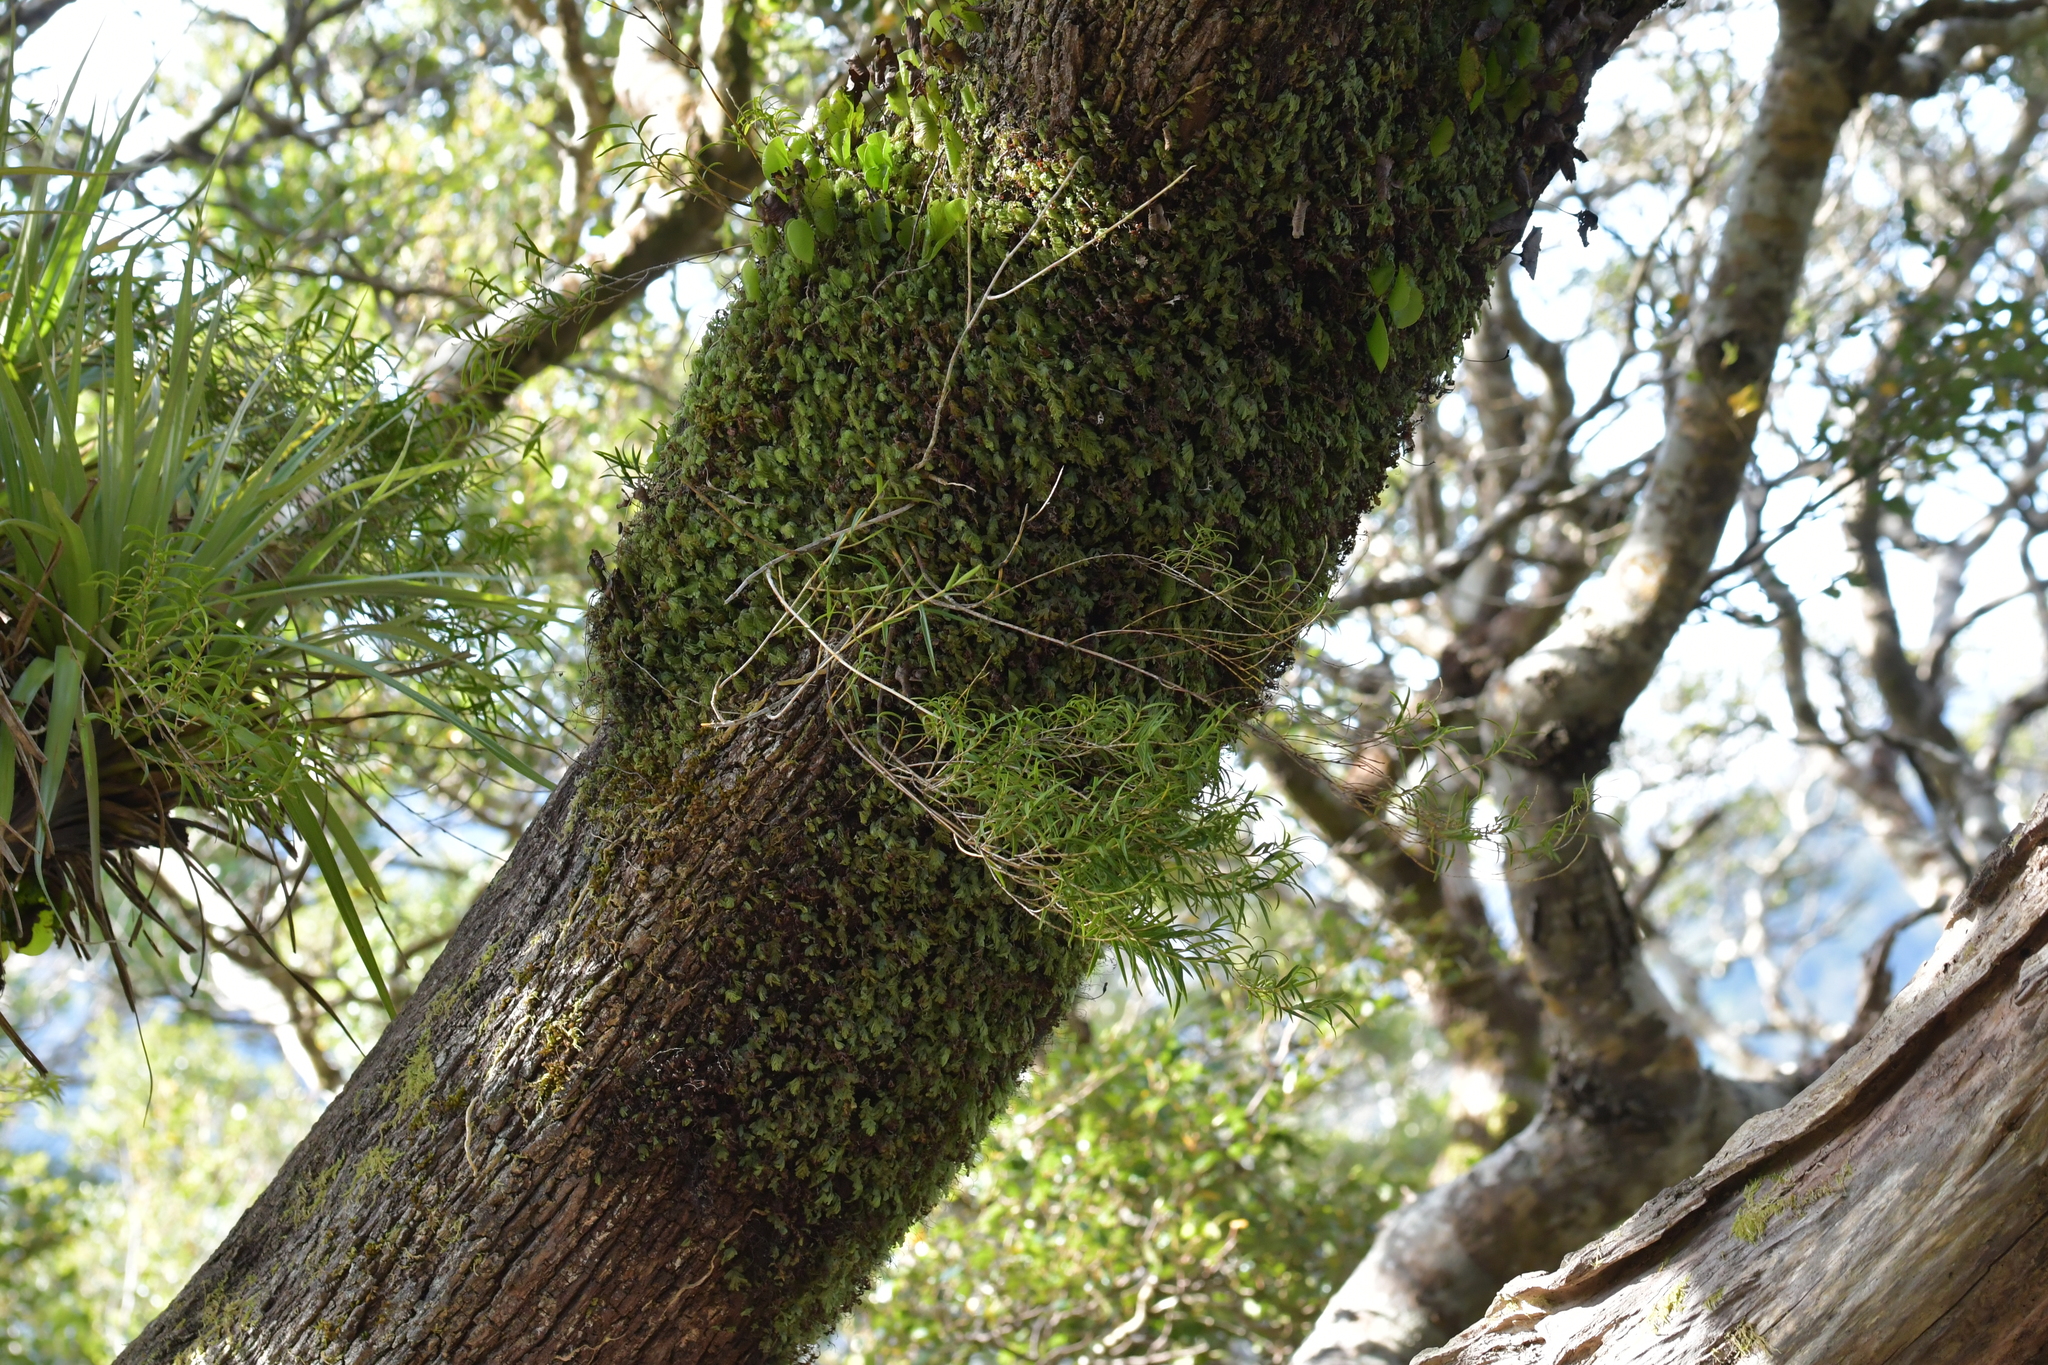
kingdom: Plantae
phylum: Tracheophyta
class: Liliopsida
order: Asparagales
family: Orchidaceae
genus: Dendrobium
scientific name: Dendrobium cunninghamii
